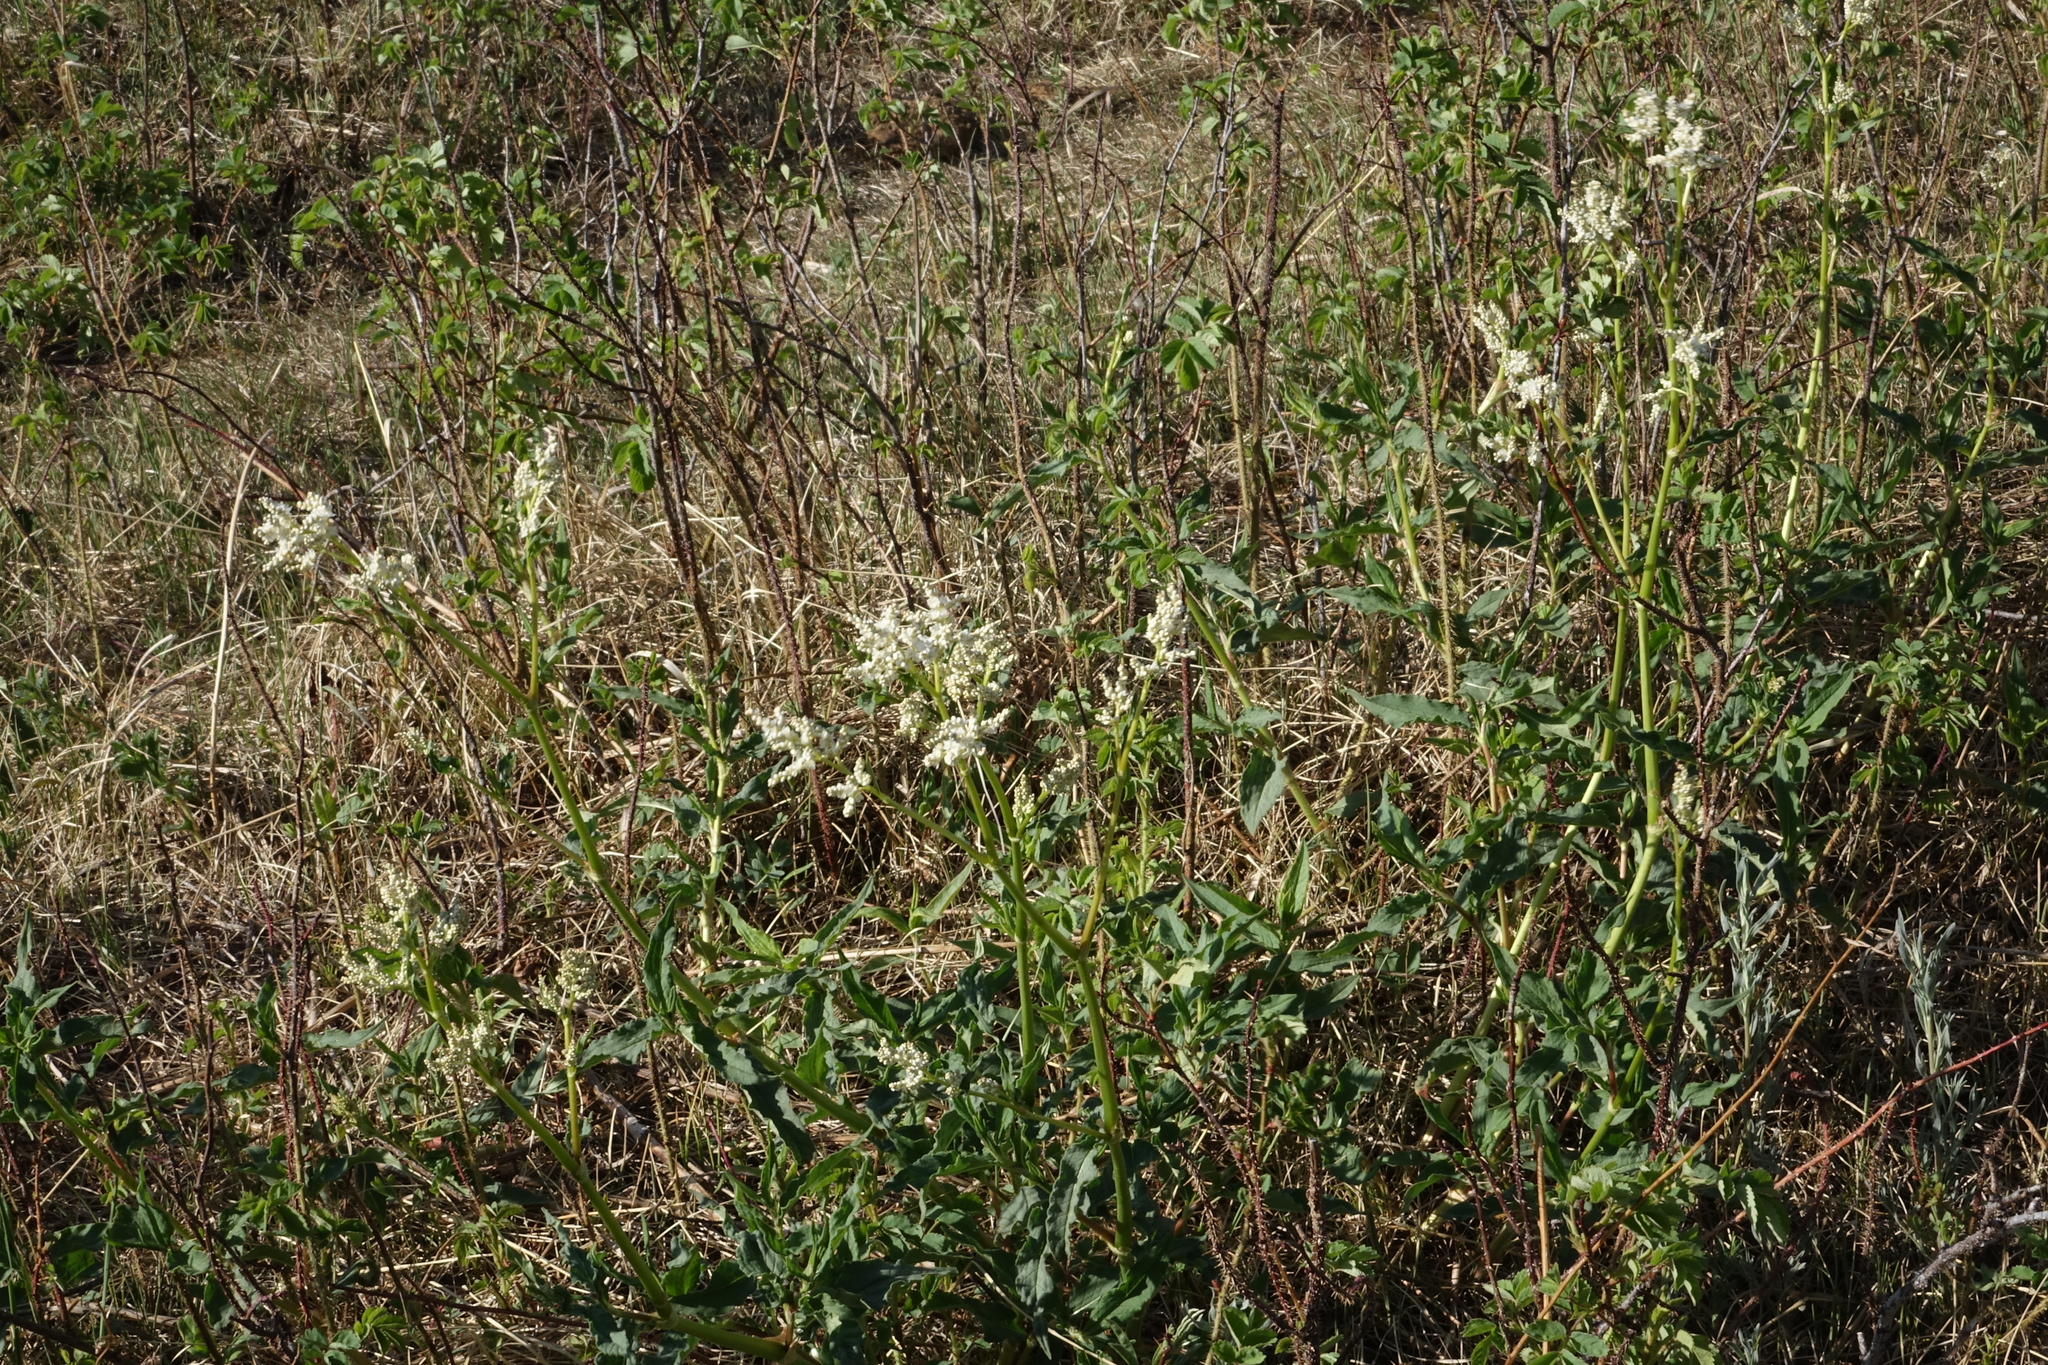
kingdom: Plantae
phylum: Tracheophyta
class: Magnoliopsida
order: Caryophyllales
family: Polygonaceae
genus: Koenigia
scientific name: Koenigia alpina
